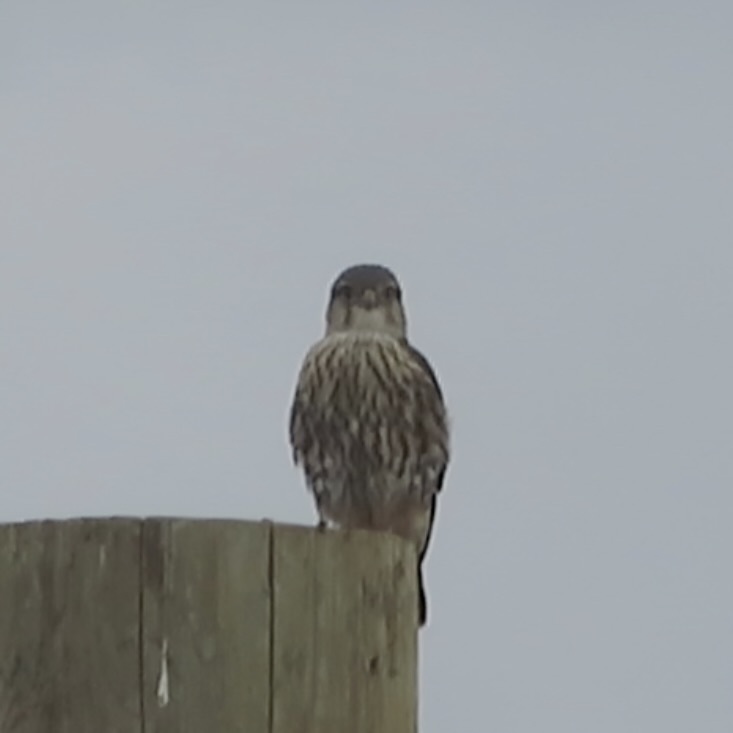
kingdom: Animalia
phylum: Chordata
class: Aves
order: Falconiformes
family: Falconidae
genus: Falco
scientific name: Falco columbarius
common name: Merlin
